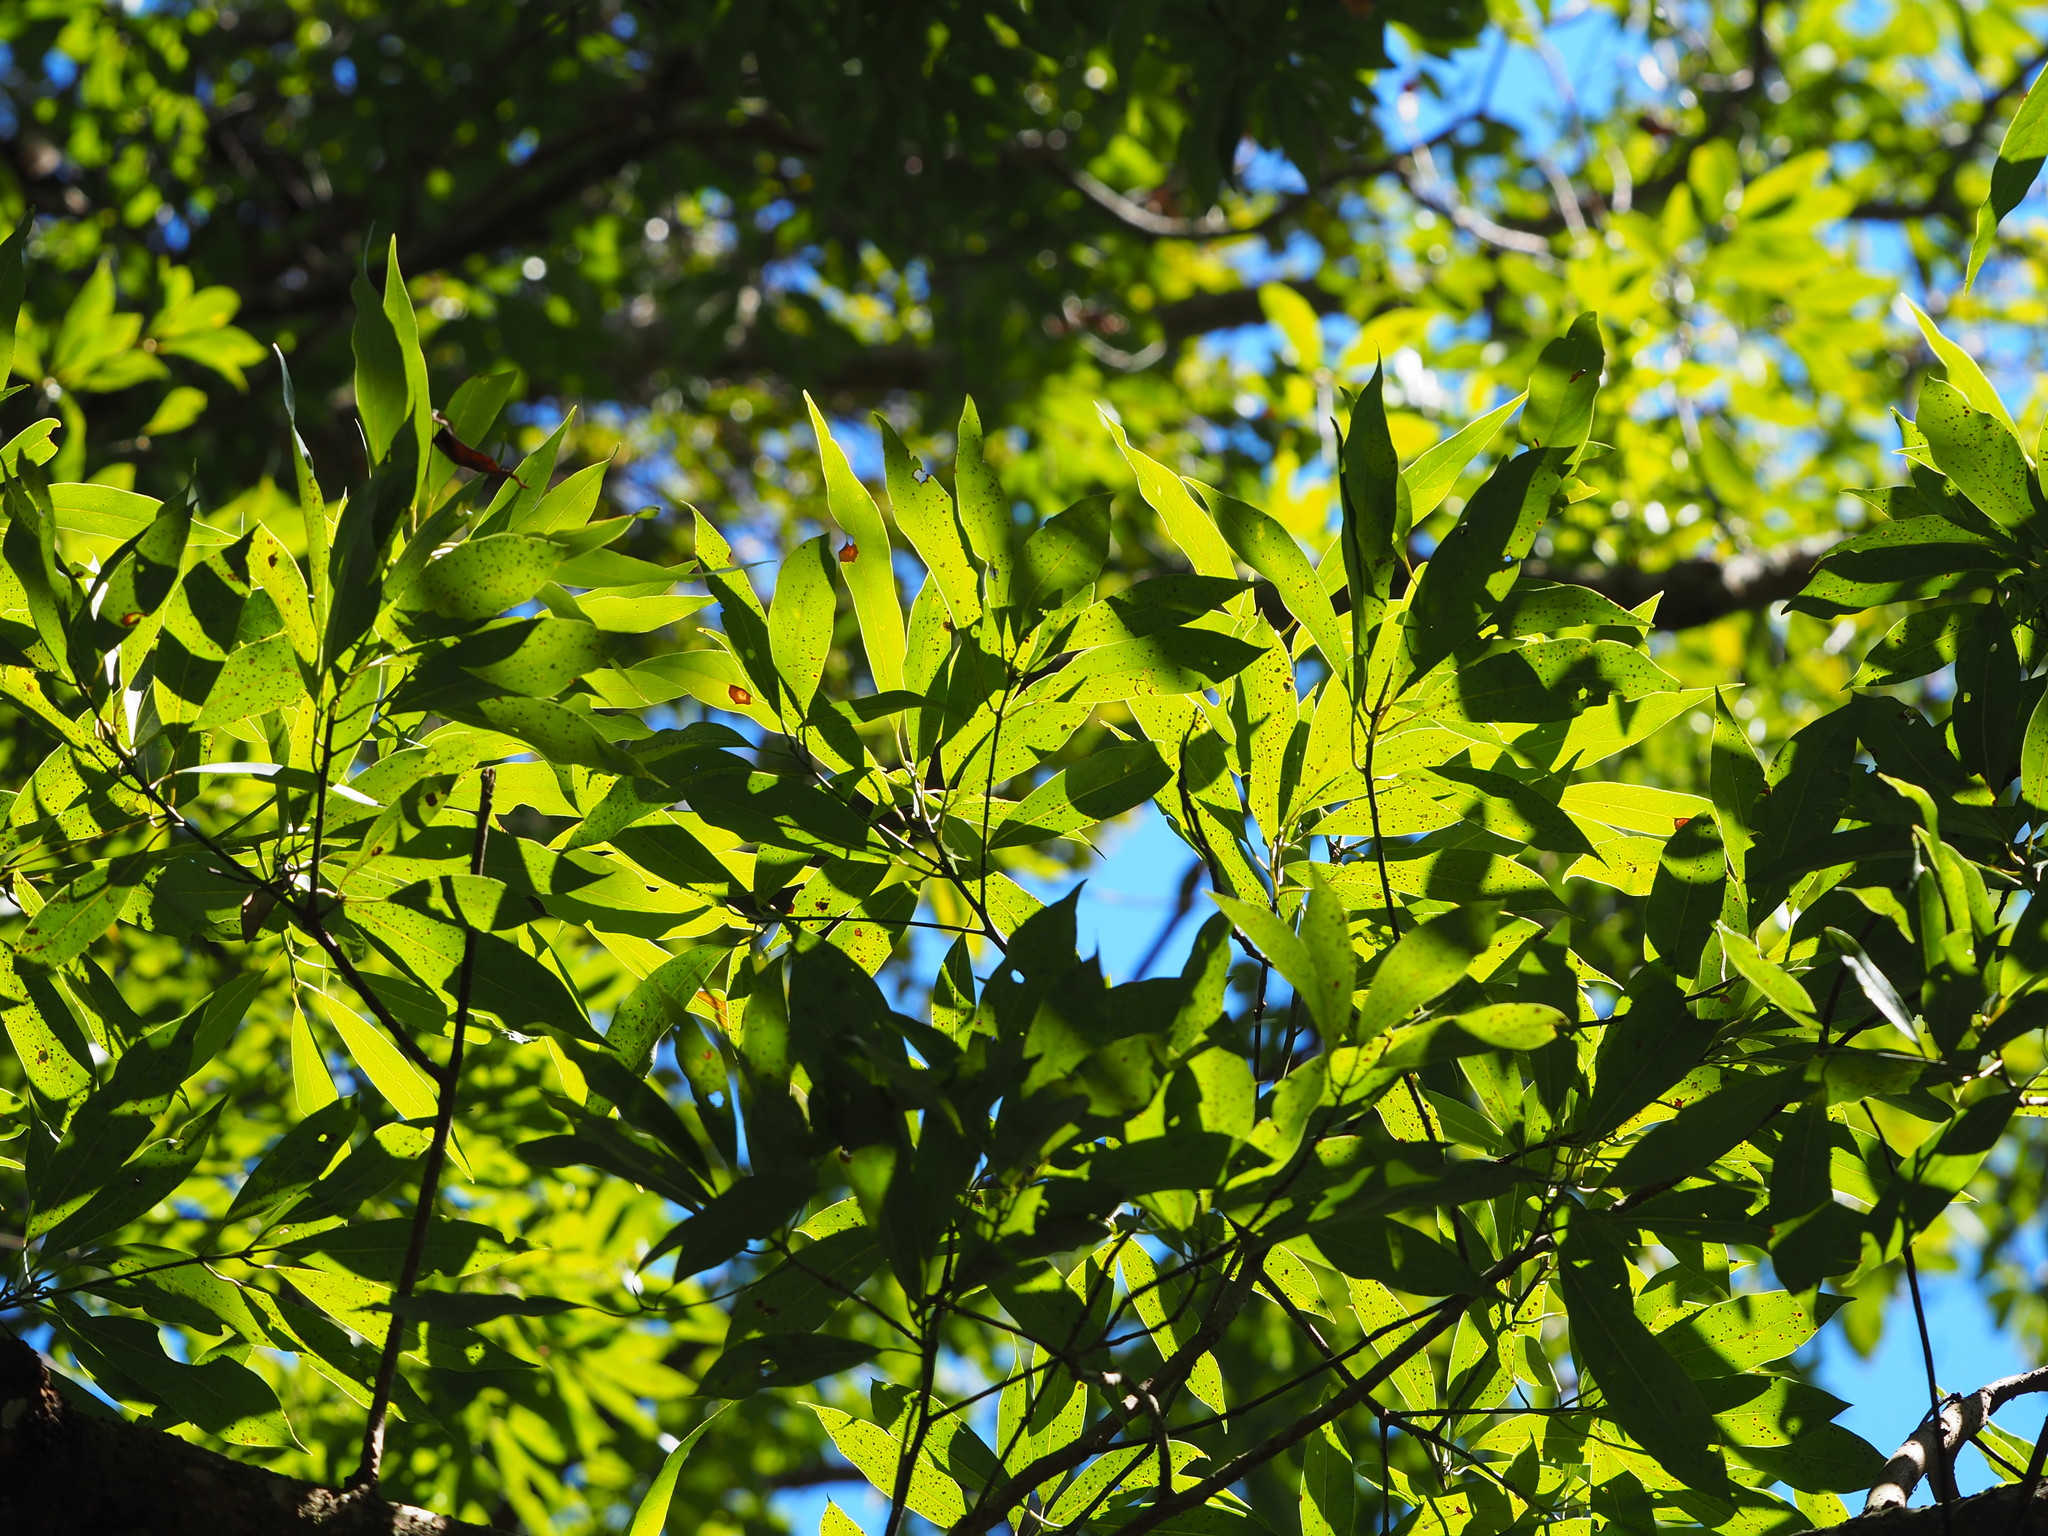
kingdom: Plantae
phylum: Tracheophyta
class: Magnoliopsida
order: Laurales
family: Lauraceae
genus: Machilus
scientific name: Machilus zuihoensis
